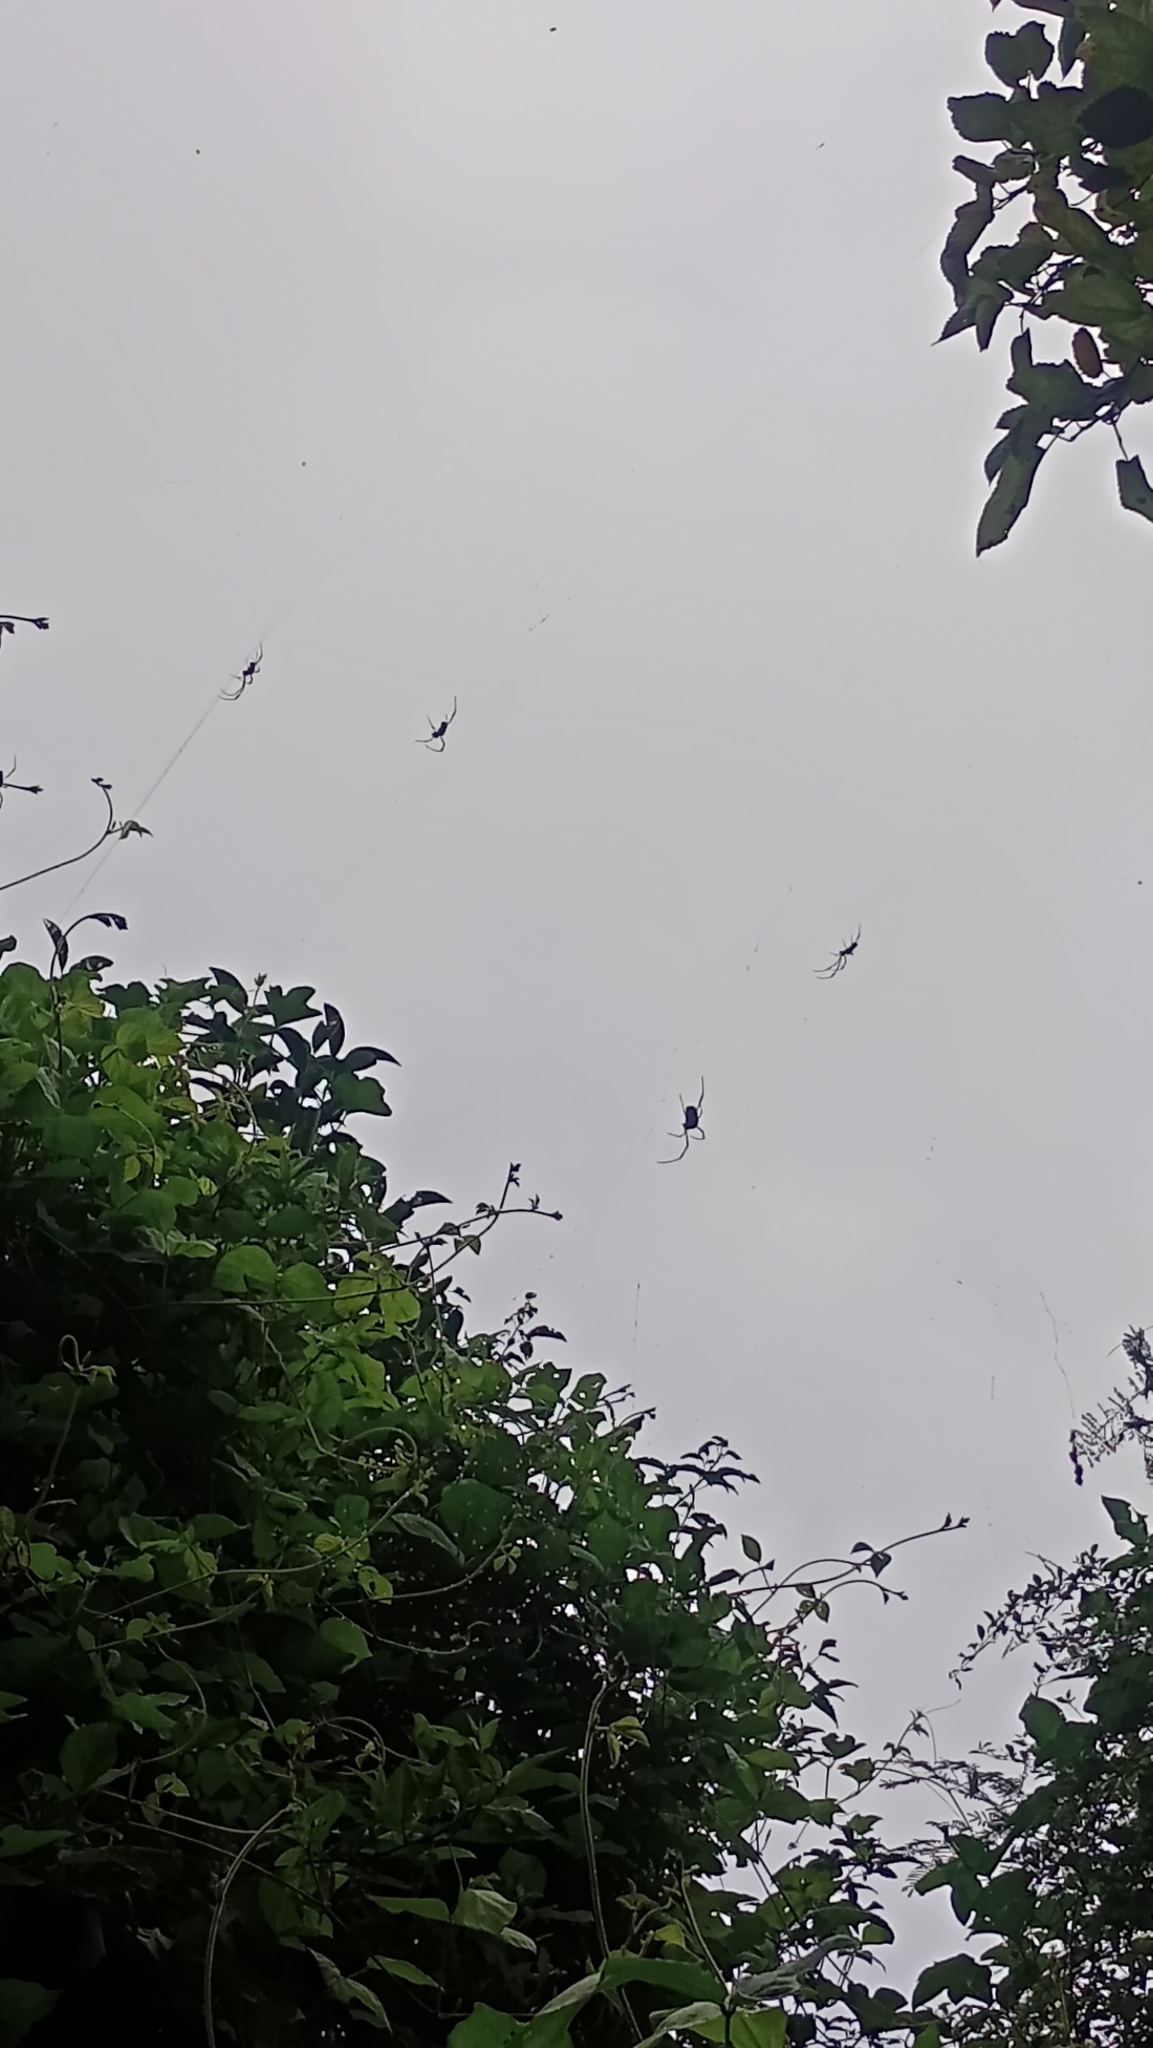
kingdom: Animalia
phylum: Arthropoda
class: Arachnida
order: Araneae
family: Araneidae
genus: Trichonephila
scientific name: Trichonephila clavipes
